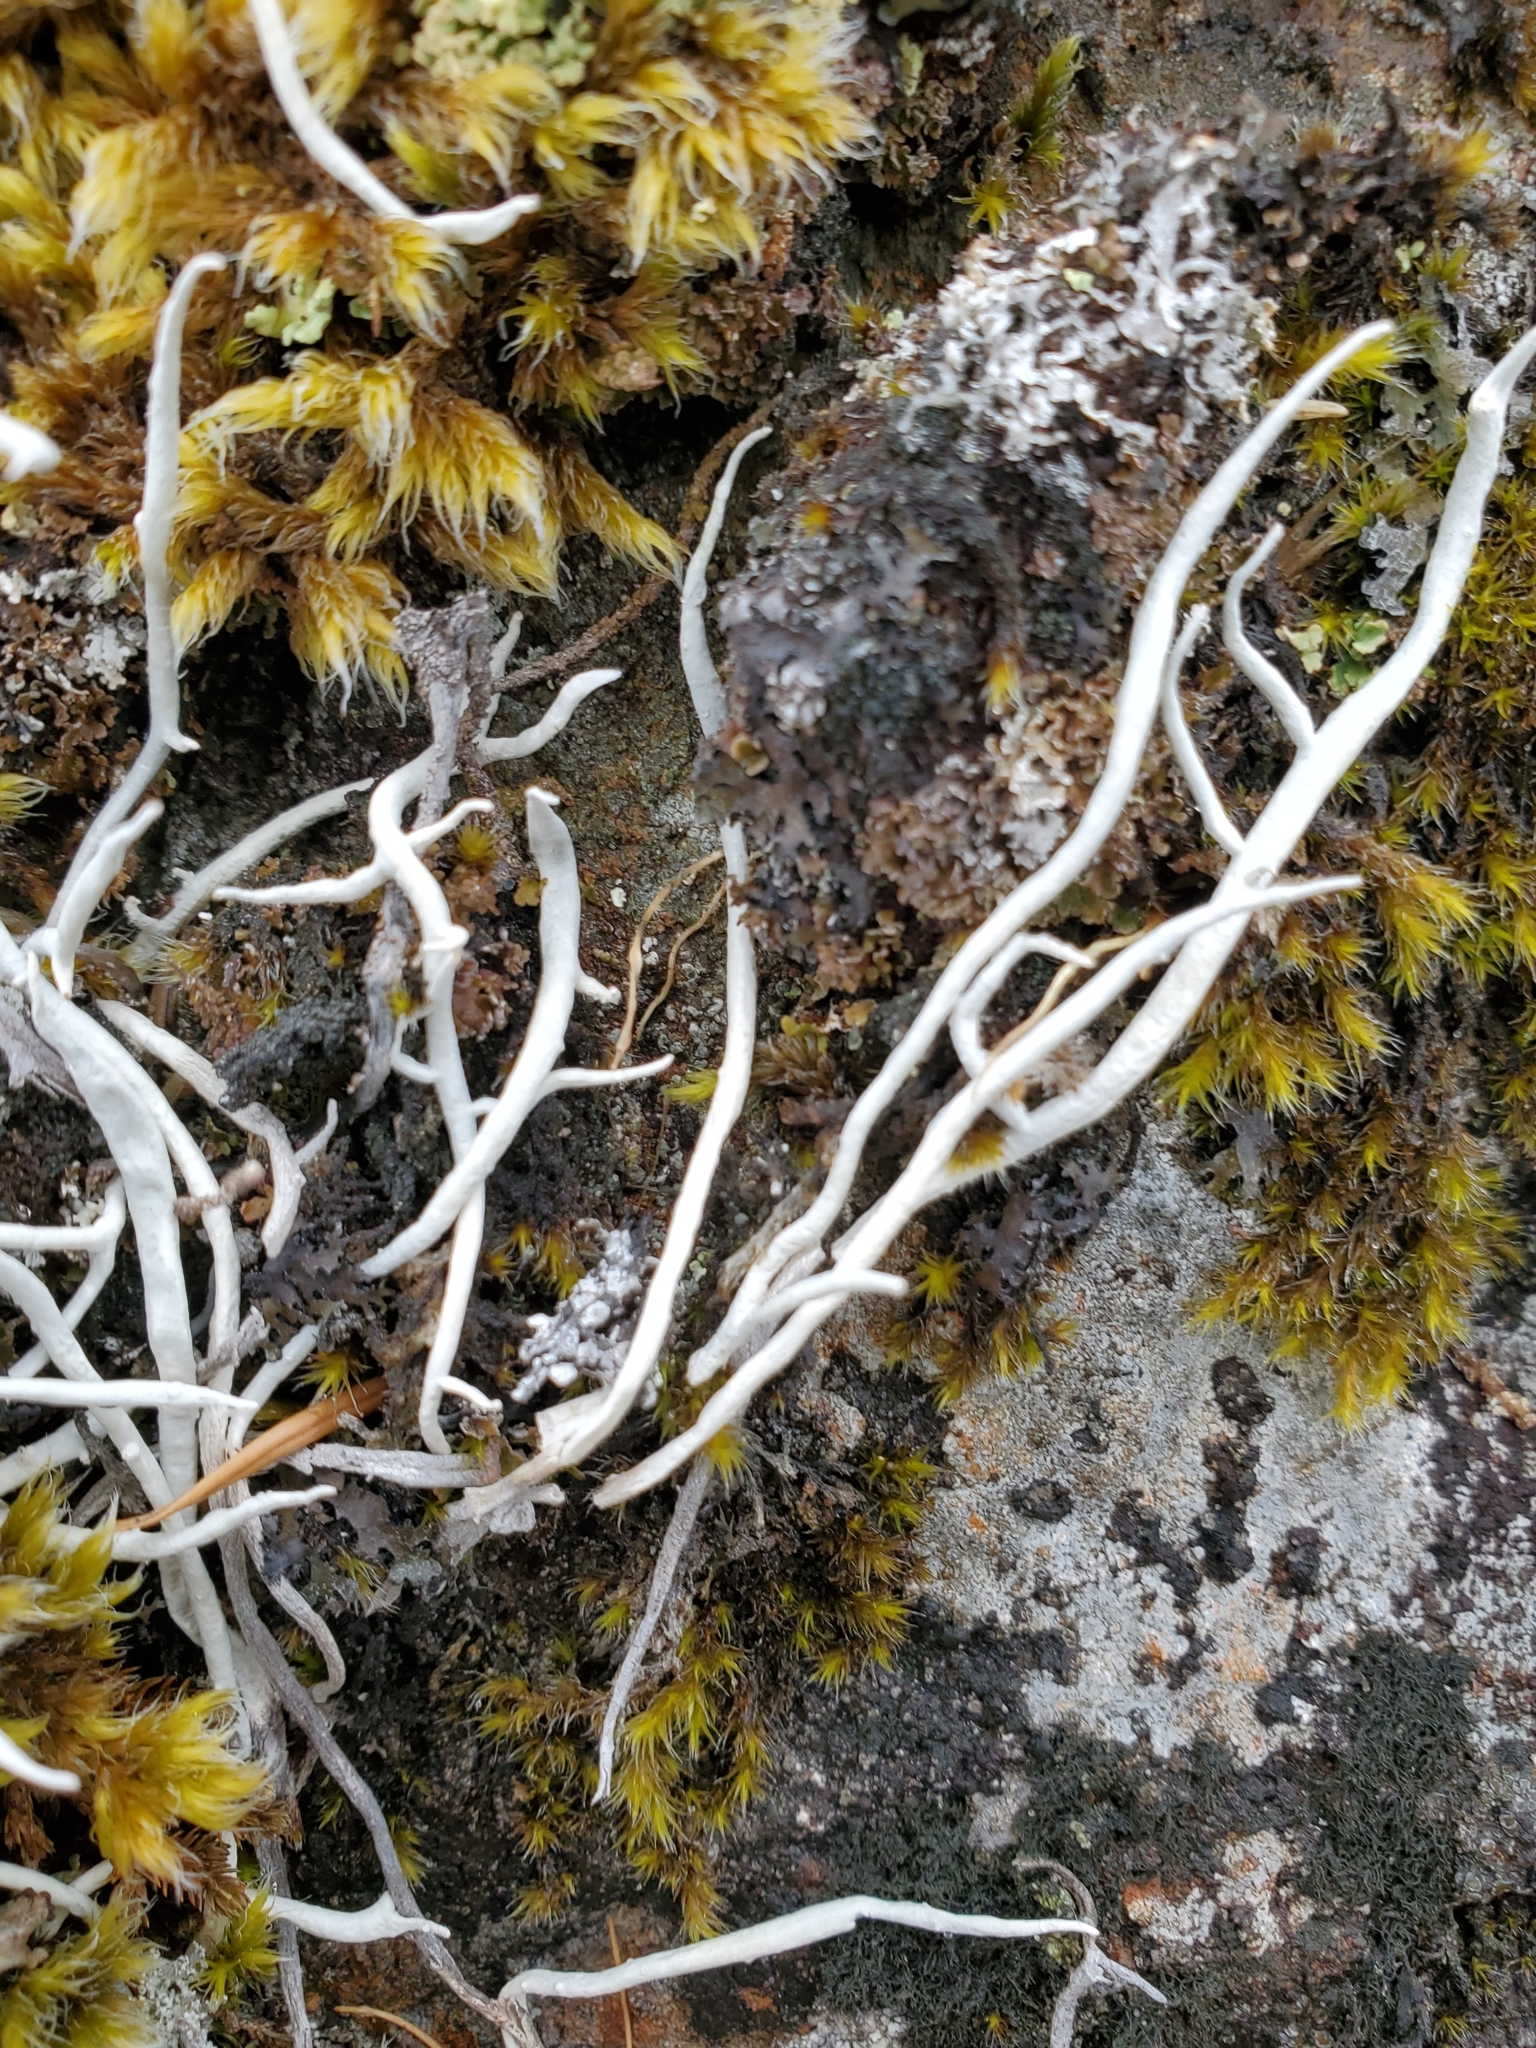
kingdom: Fungi
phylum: Ascomycota
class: Lecanoromycetes
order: Pertusariales
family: Icmadophilaceae
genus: Thamnolia
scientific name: Thamnolia vermicularis
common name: Whiteworm lichen
